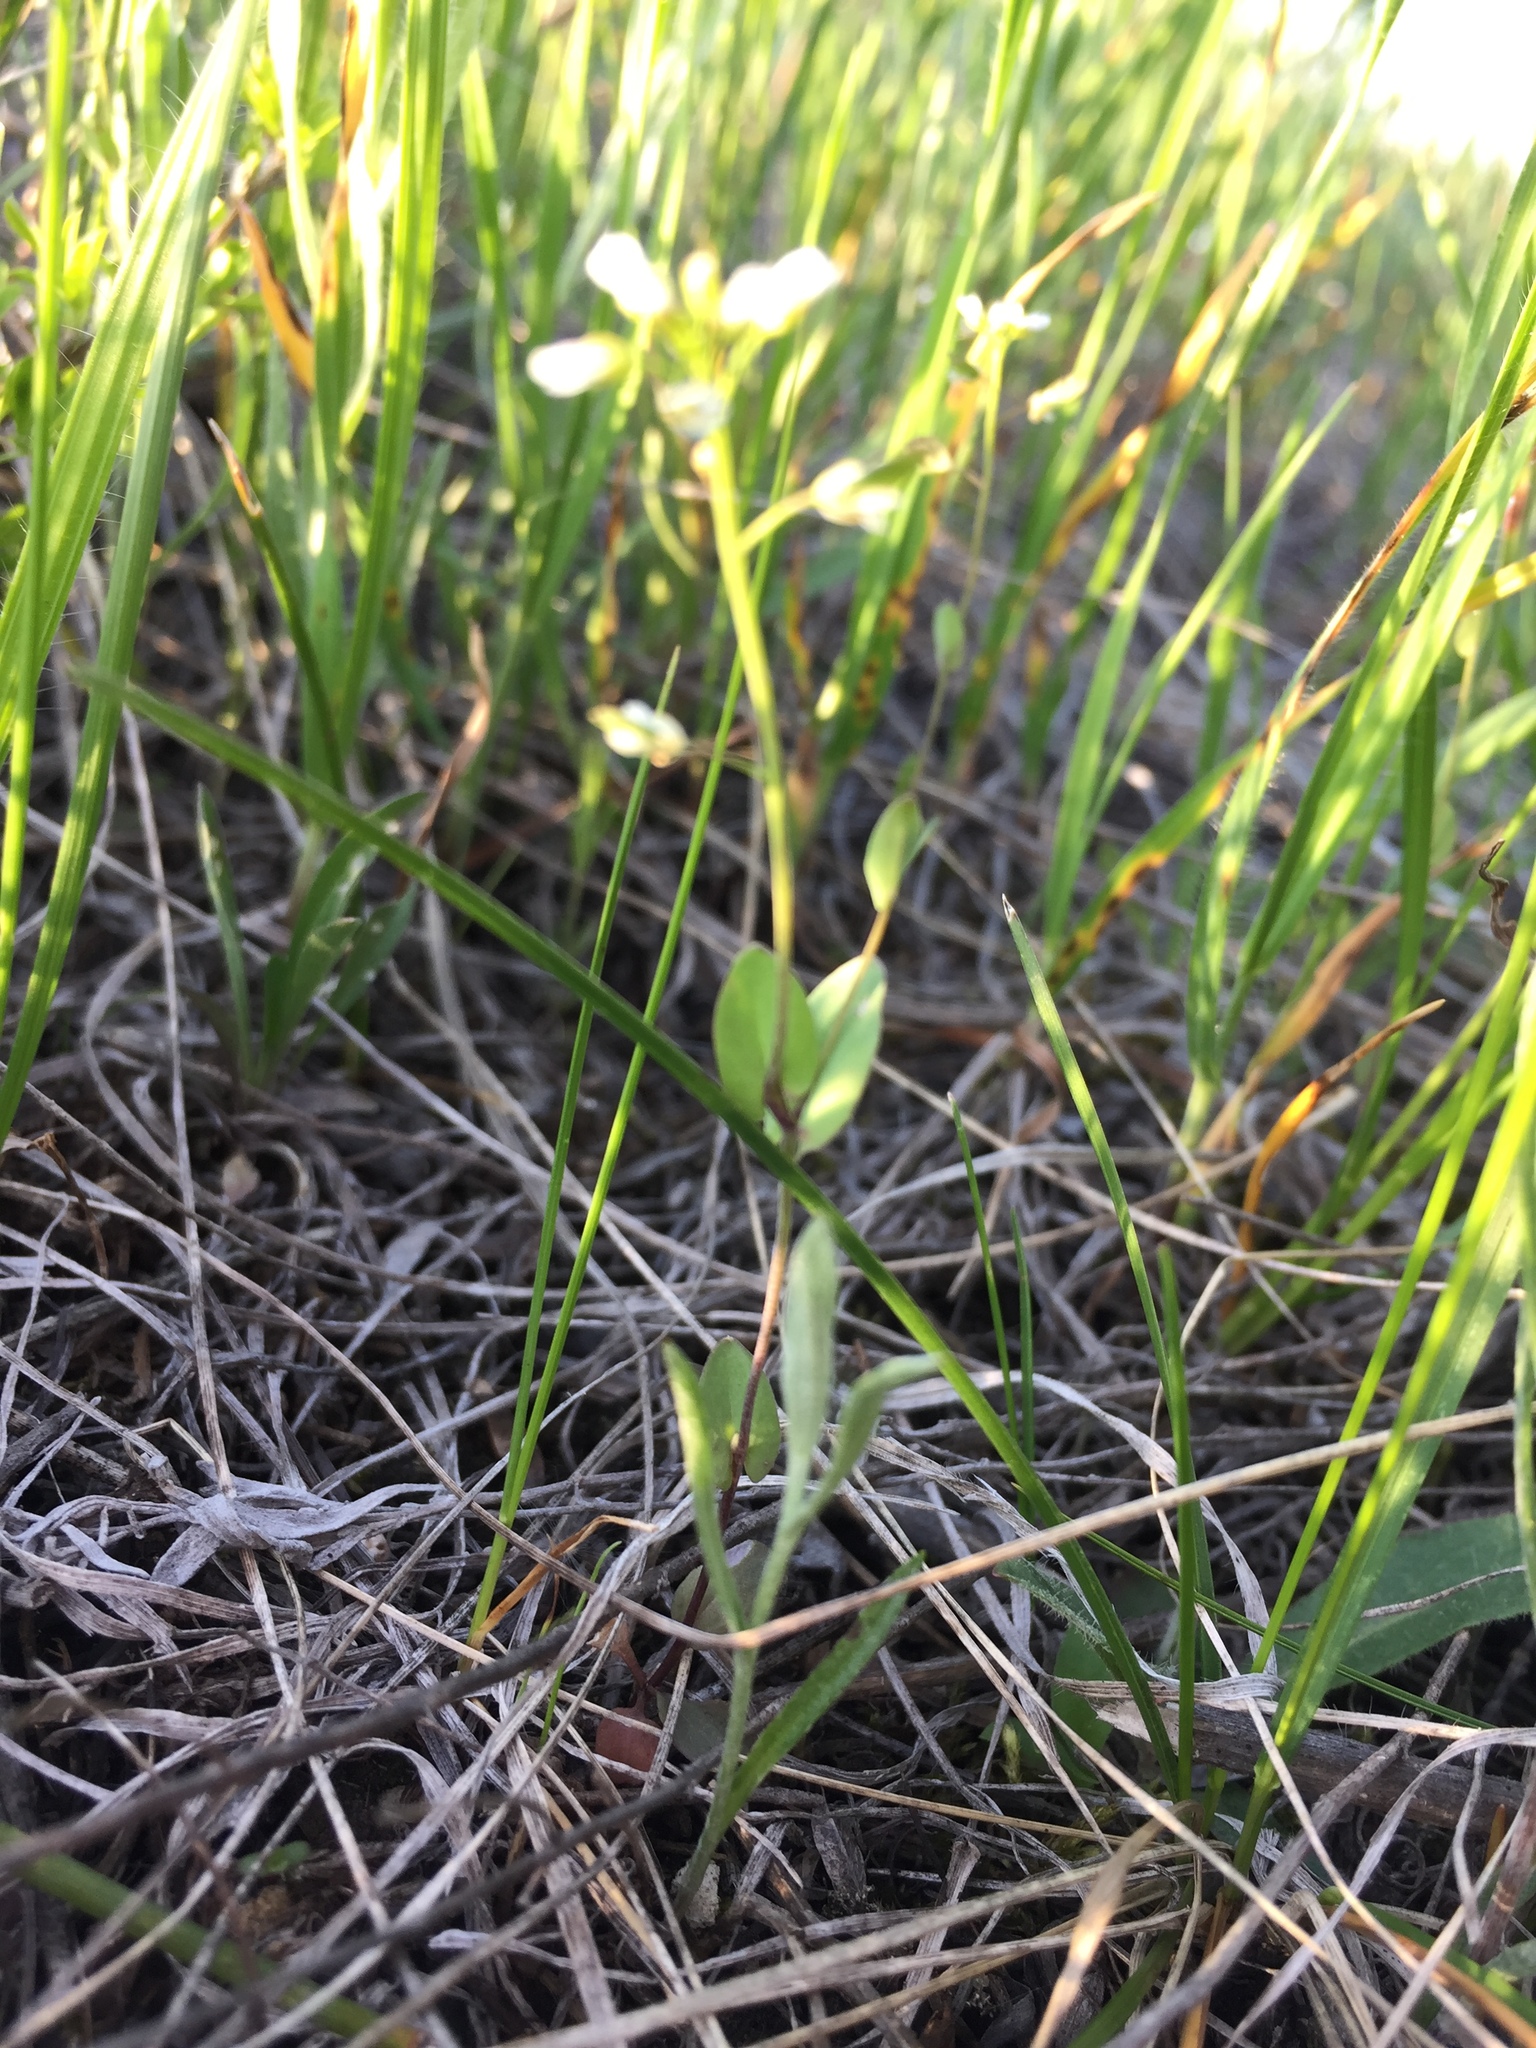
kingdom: Plantae
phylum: Tracheophyta
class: Magnoliopsida
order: Brassicales
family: Brassicaceae
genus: Noccaea
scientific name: Noccaea perfoliata
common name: Perfoliate pennycress
